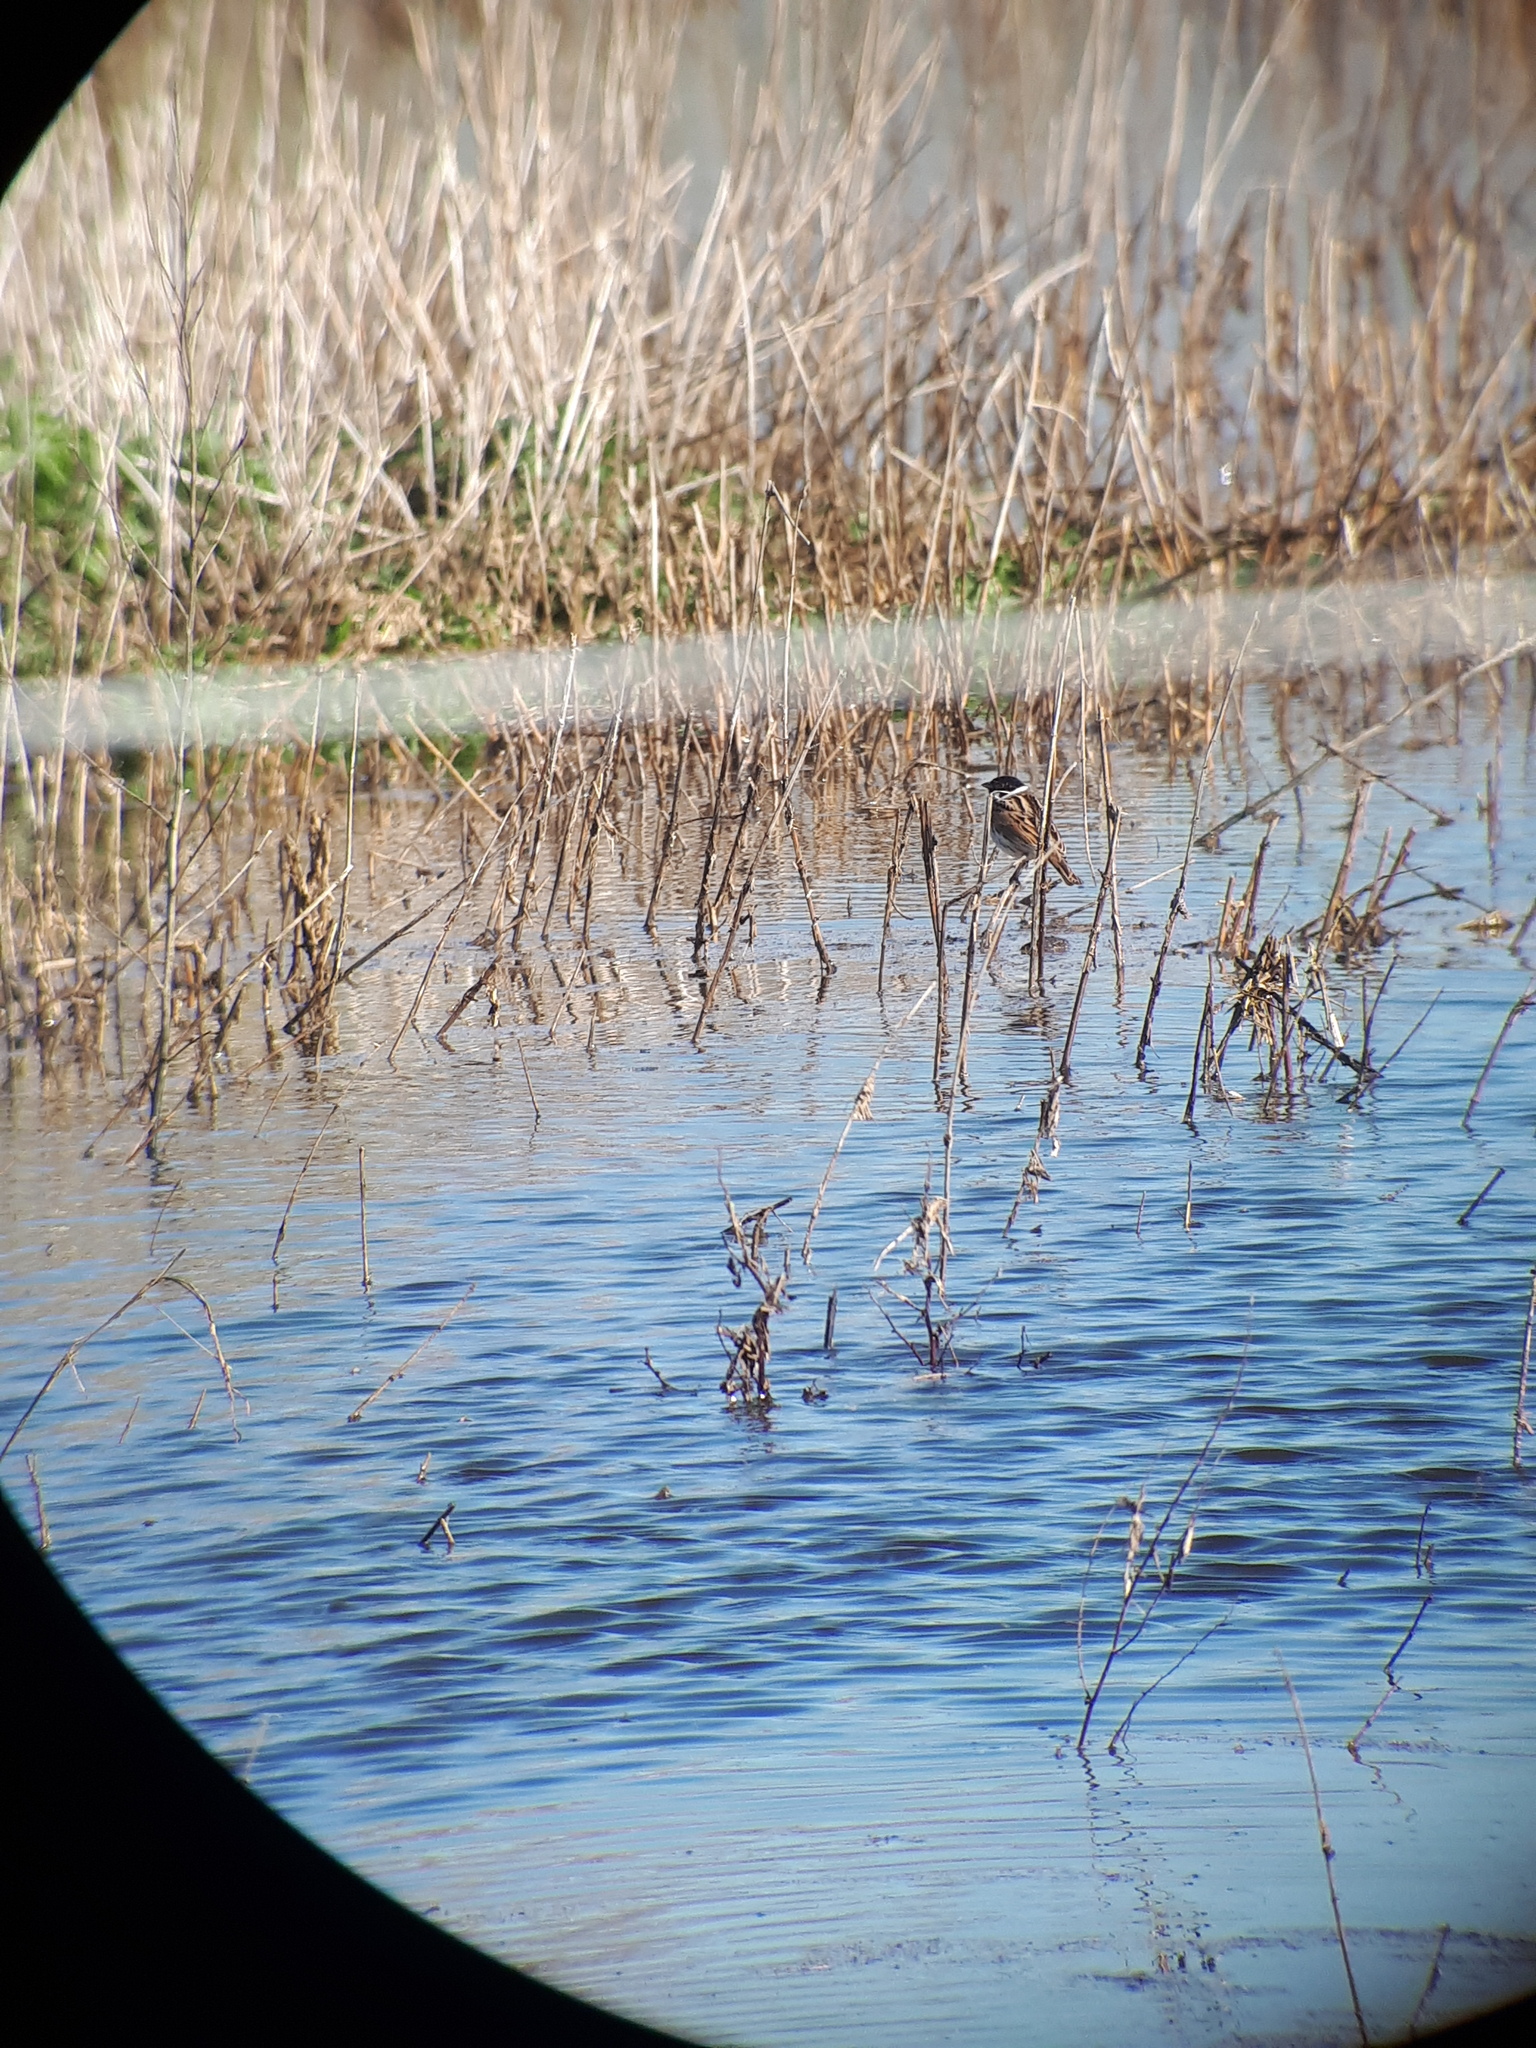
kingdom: Animalia
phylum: Chordata
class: Aves
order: Passeriformes
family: Emberizidae
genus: Emberiza
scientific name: Emberiza schoeniclus
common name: Reed bunting
